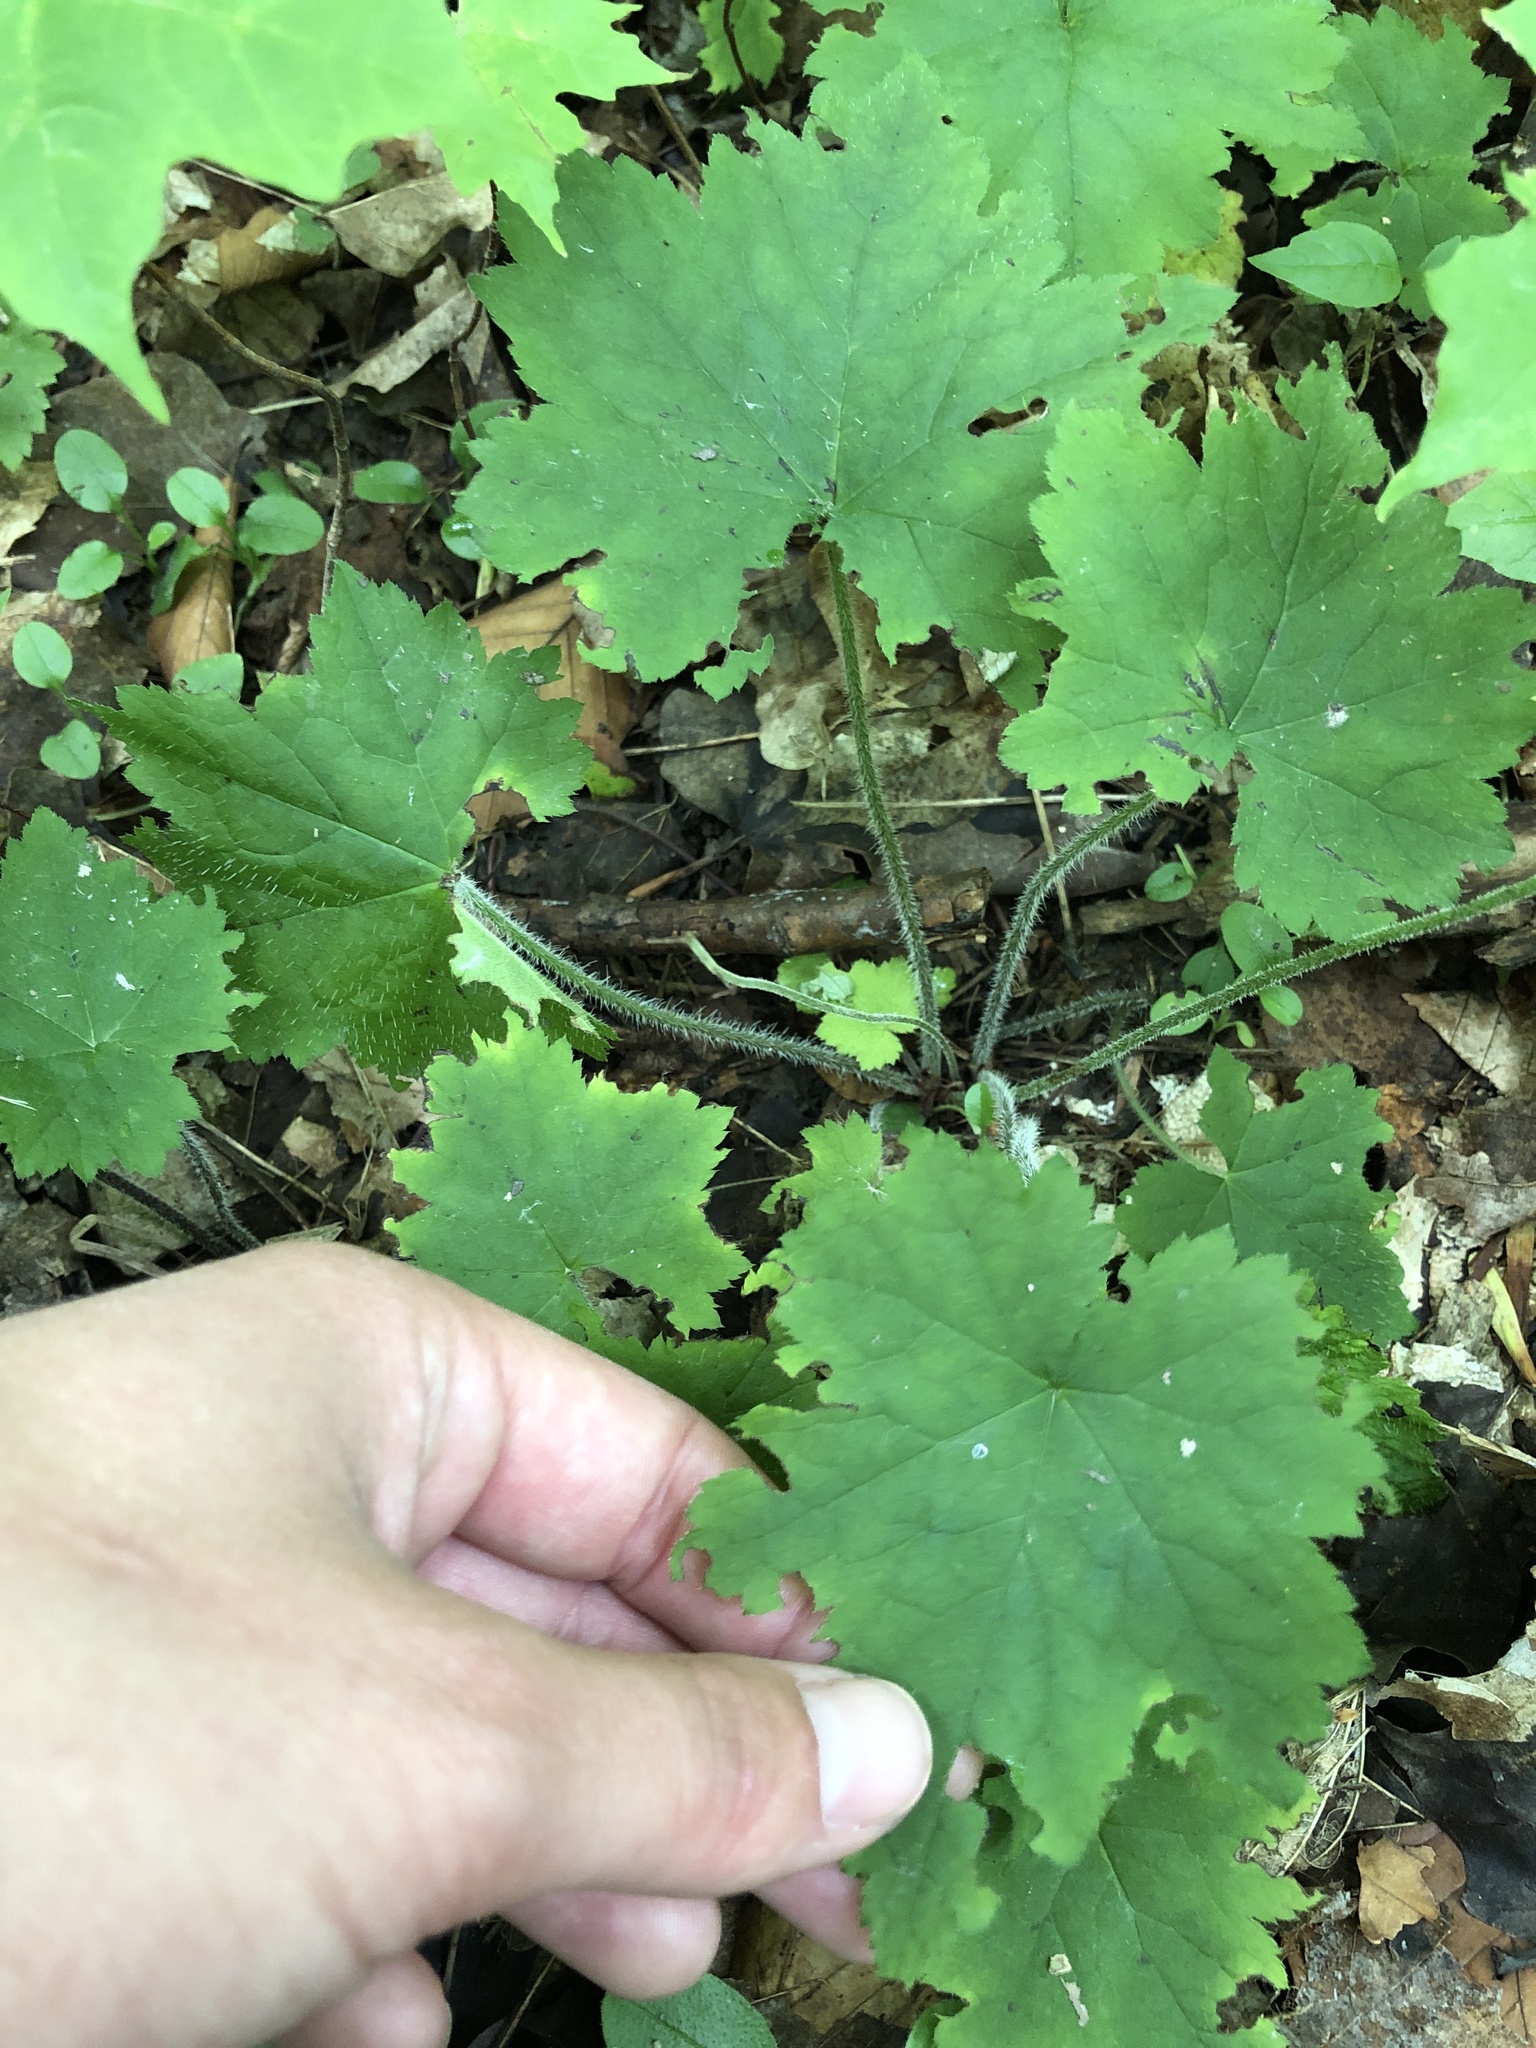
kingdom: Plantae
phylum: Tracheophyta
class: Magnoliopsida
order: Saxifragales
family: Saxifragaceae
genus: Tiarella
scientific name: Tiarella stolonifera
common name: Stoloniferous foamflower
